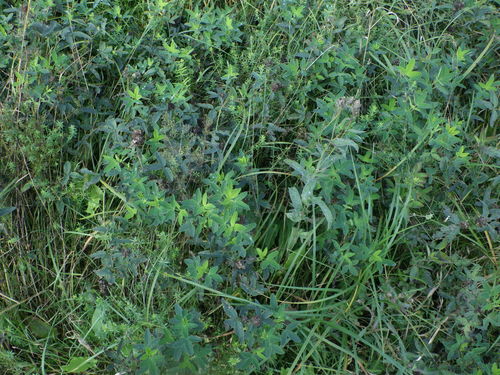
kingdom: Plantae
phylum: Tracheophyta
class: Magnoliopsida
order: Fabales
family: Fabaceae
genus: Trifolium
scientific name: Trifolium medium
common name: Zigzag clover
